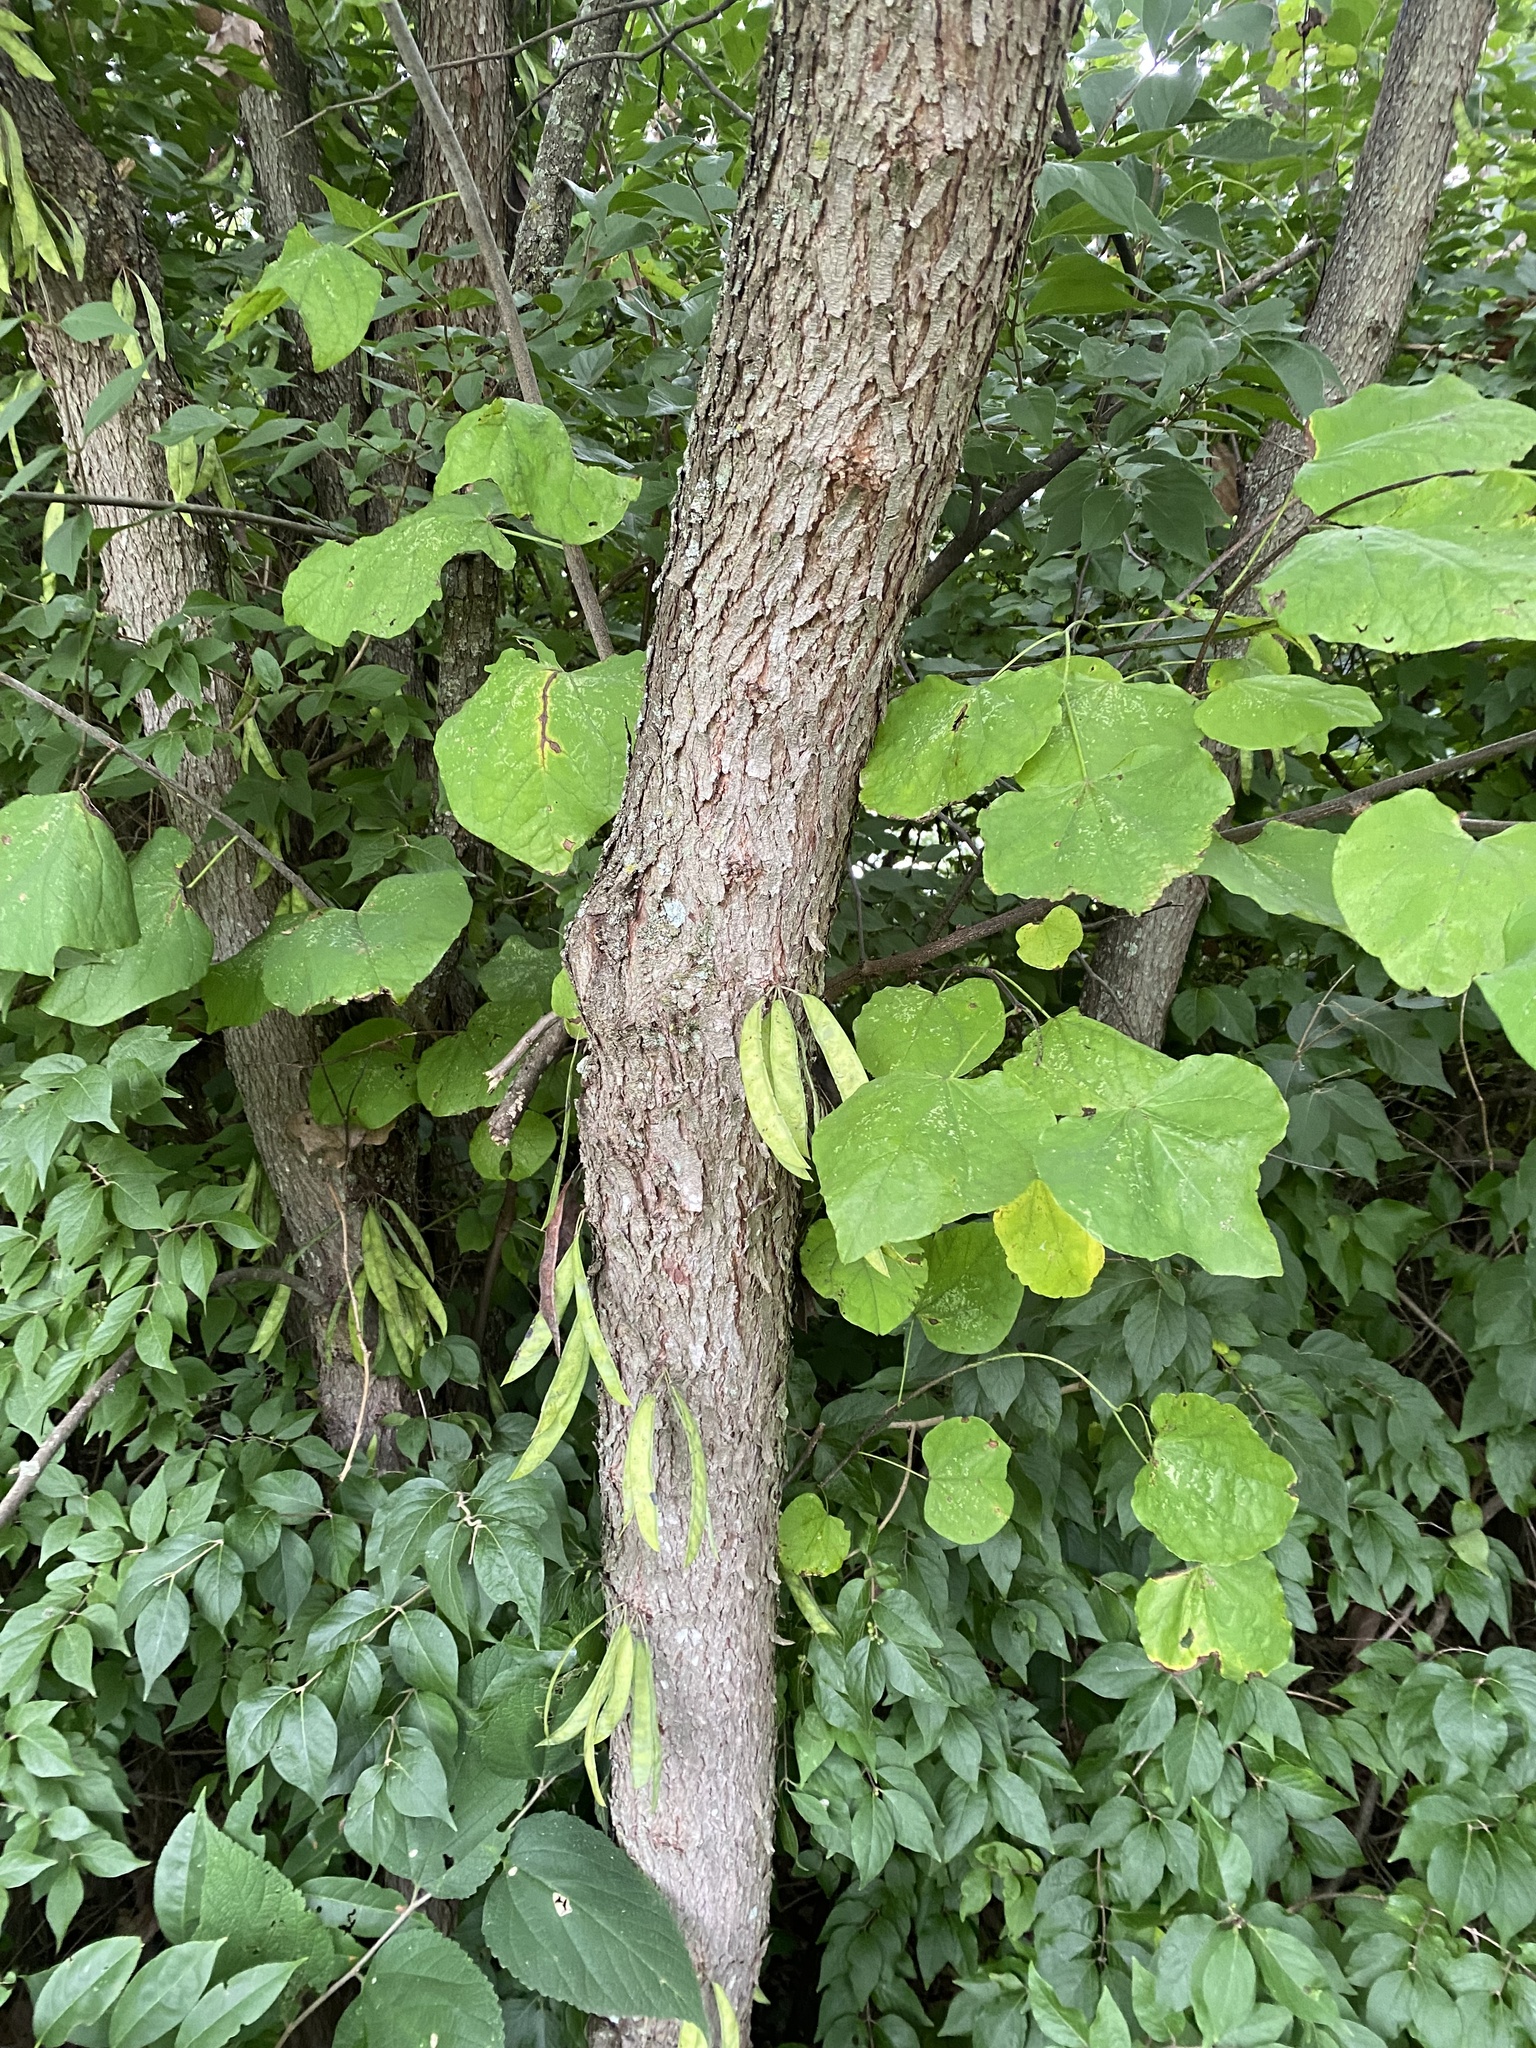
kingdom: Plantae
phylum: Tracheophyta
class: Magnoliopsida
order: Fabales
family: Fabaceae
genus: Cercis
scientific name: Cercis canadensis
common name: Eastern redbud
